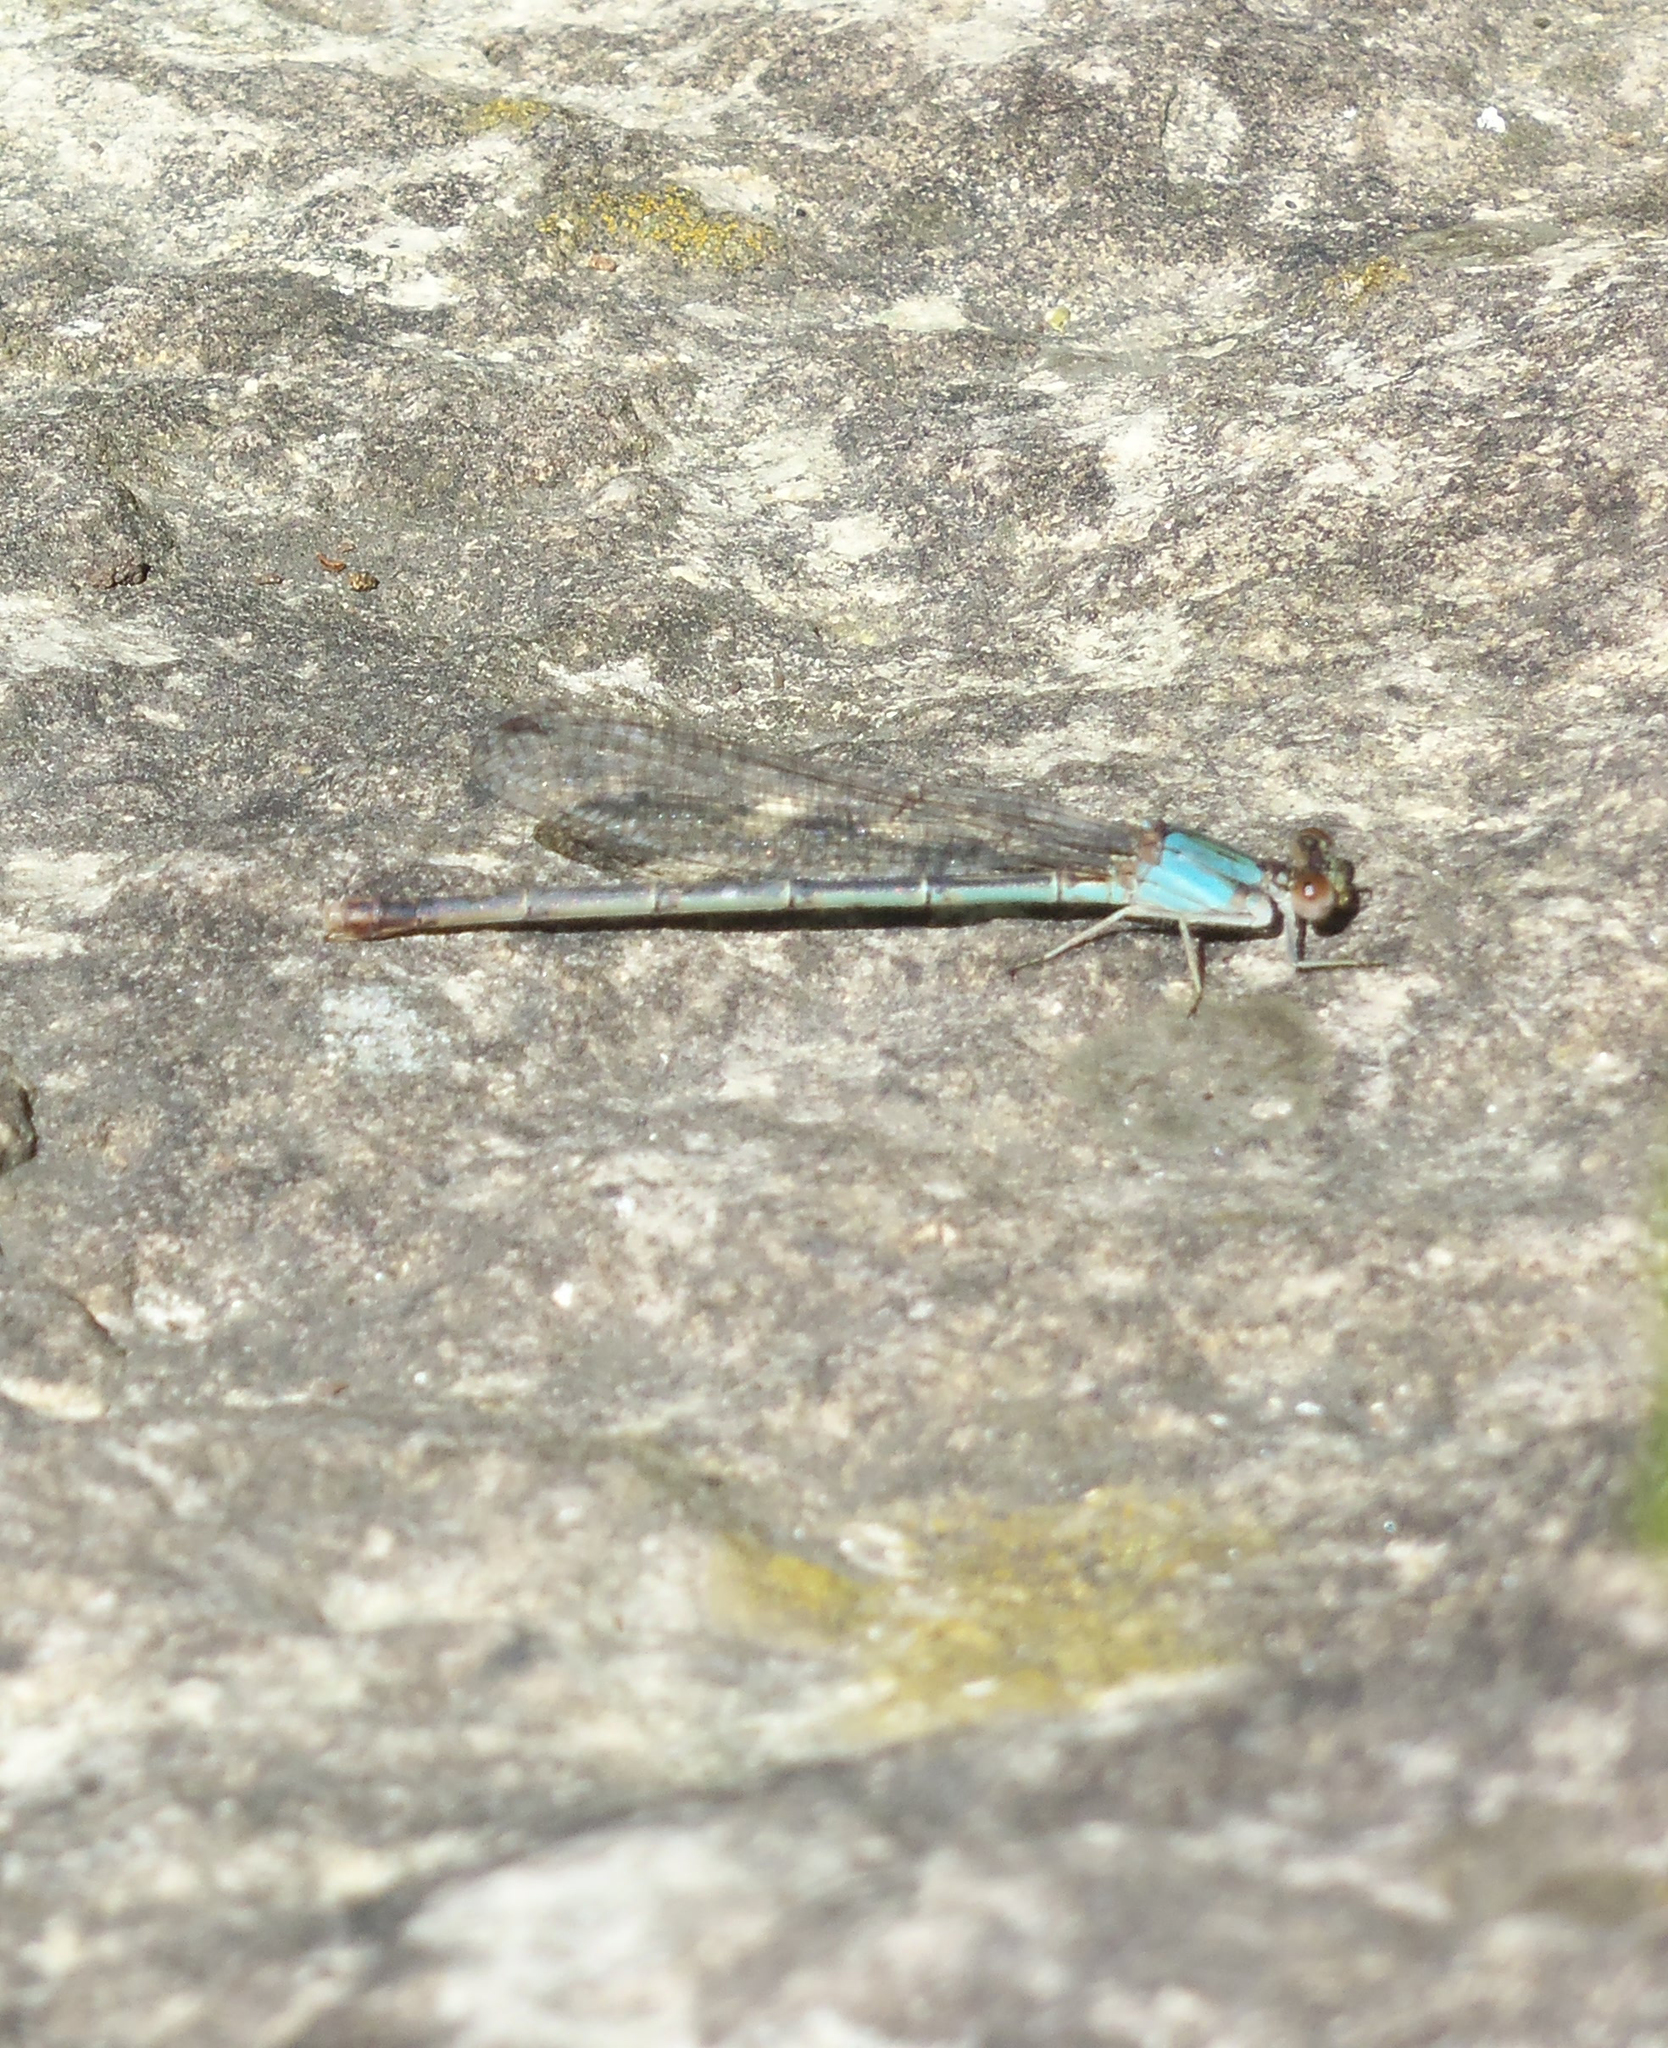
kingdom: Animalia
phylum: Arthropoda
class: Insecta
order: Odonata
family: Coenagrionidae
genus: Argia
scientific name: Argia apicalis
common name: Blue-fronted dancer
